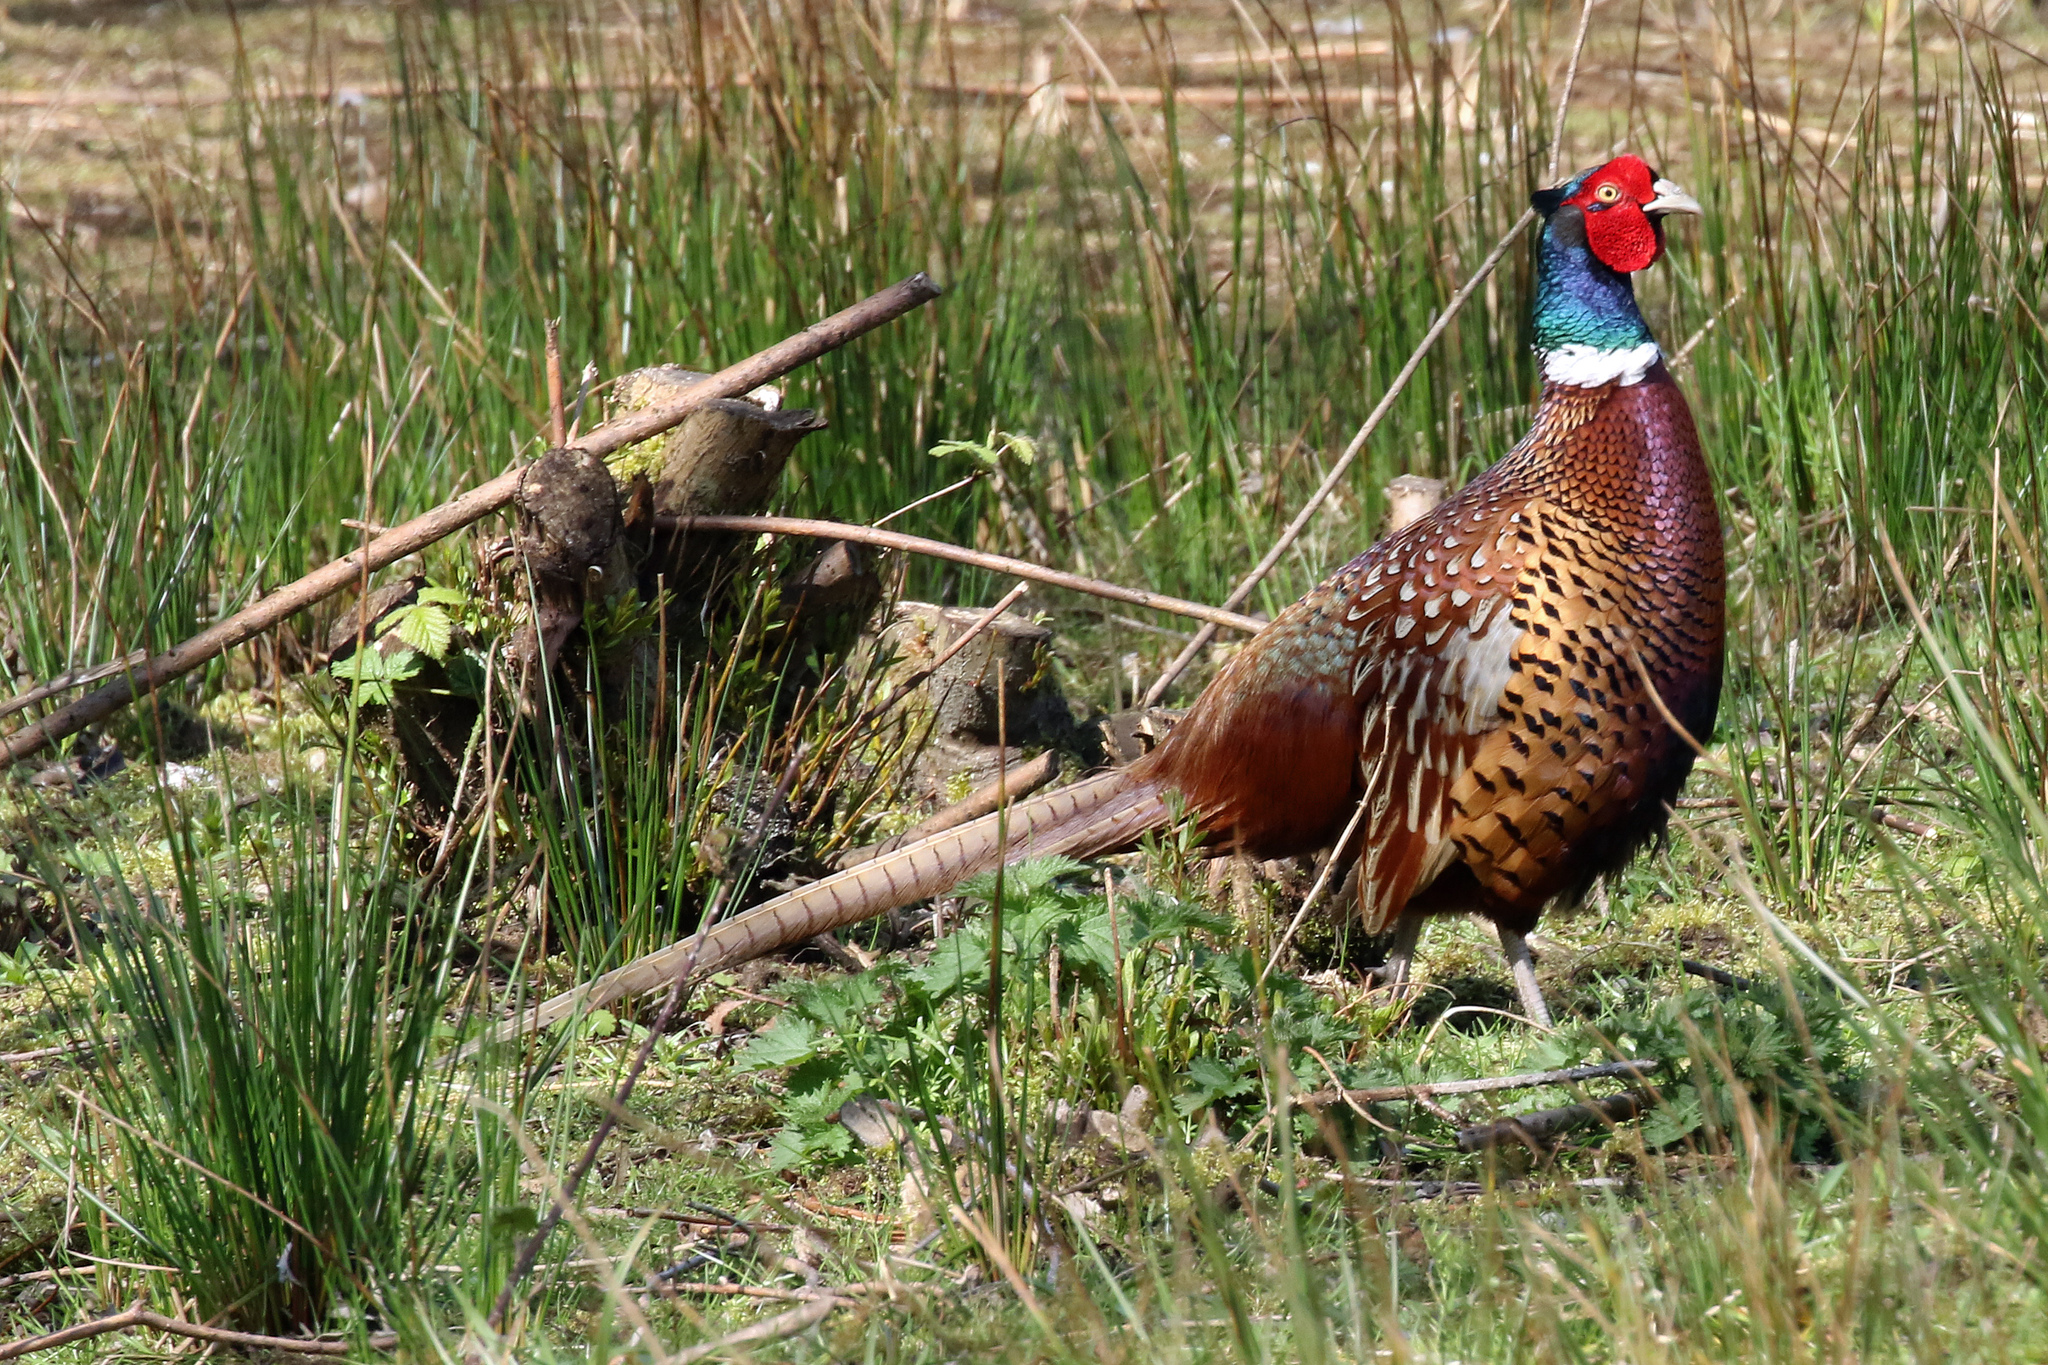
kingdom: Animalia
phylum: Chordata
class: Aves
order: Galliformes
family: Phasianidae
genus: Phasianus
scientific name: Phasianus colchicus
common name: Common pheasant
